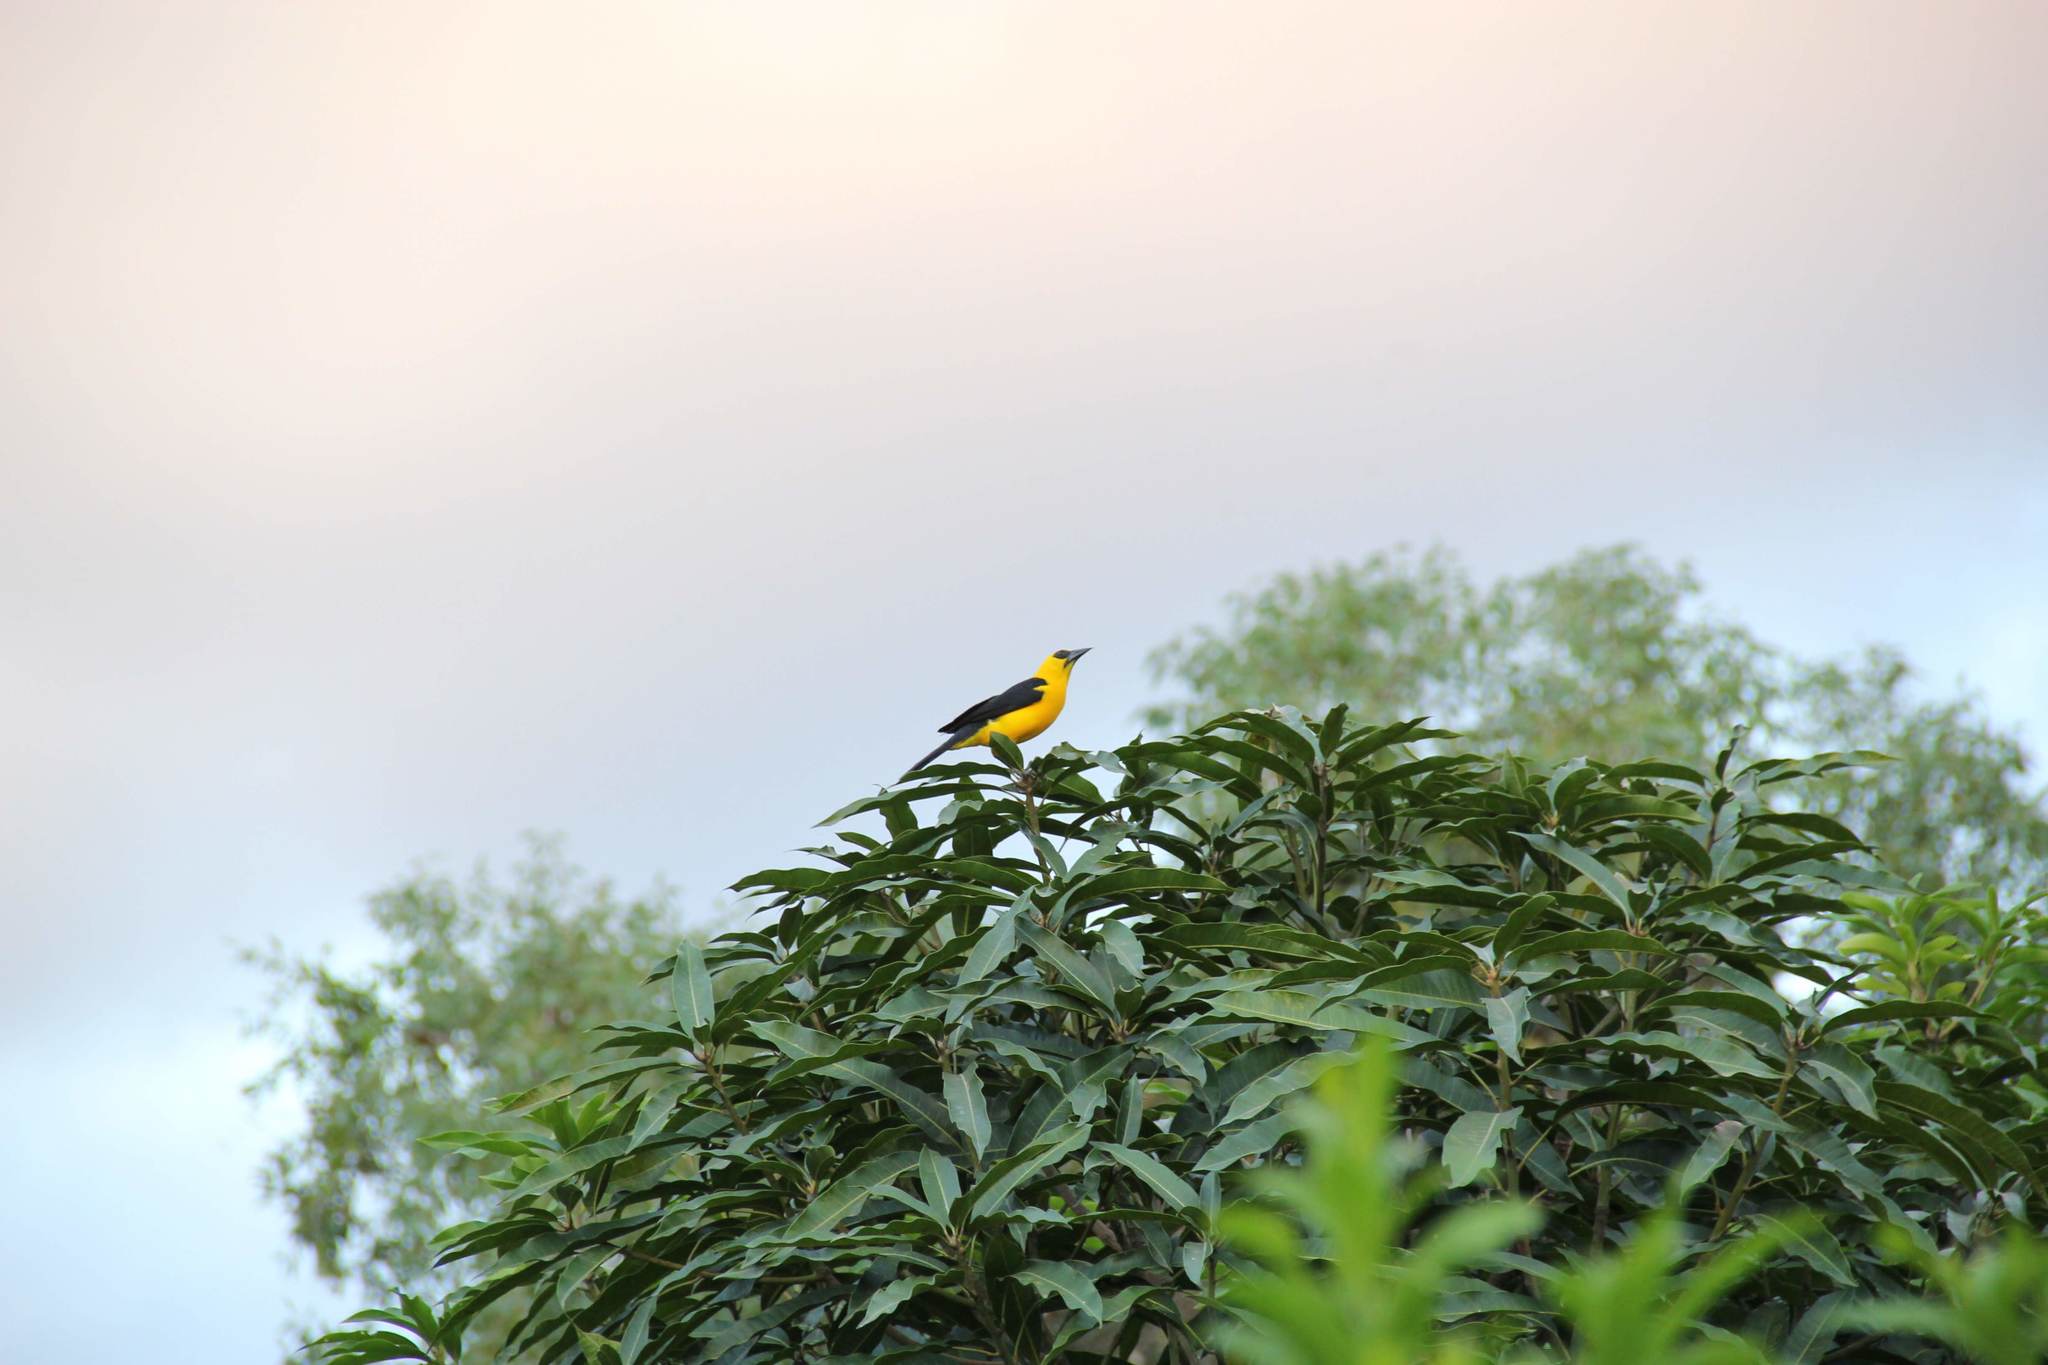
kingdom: Animalia
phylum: Chordata
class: Aves
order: Passeriformes
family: Icteridae
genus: Gymnomystax
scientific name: Gymnomystax mexicanus
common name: Oriole blackbird
